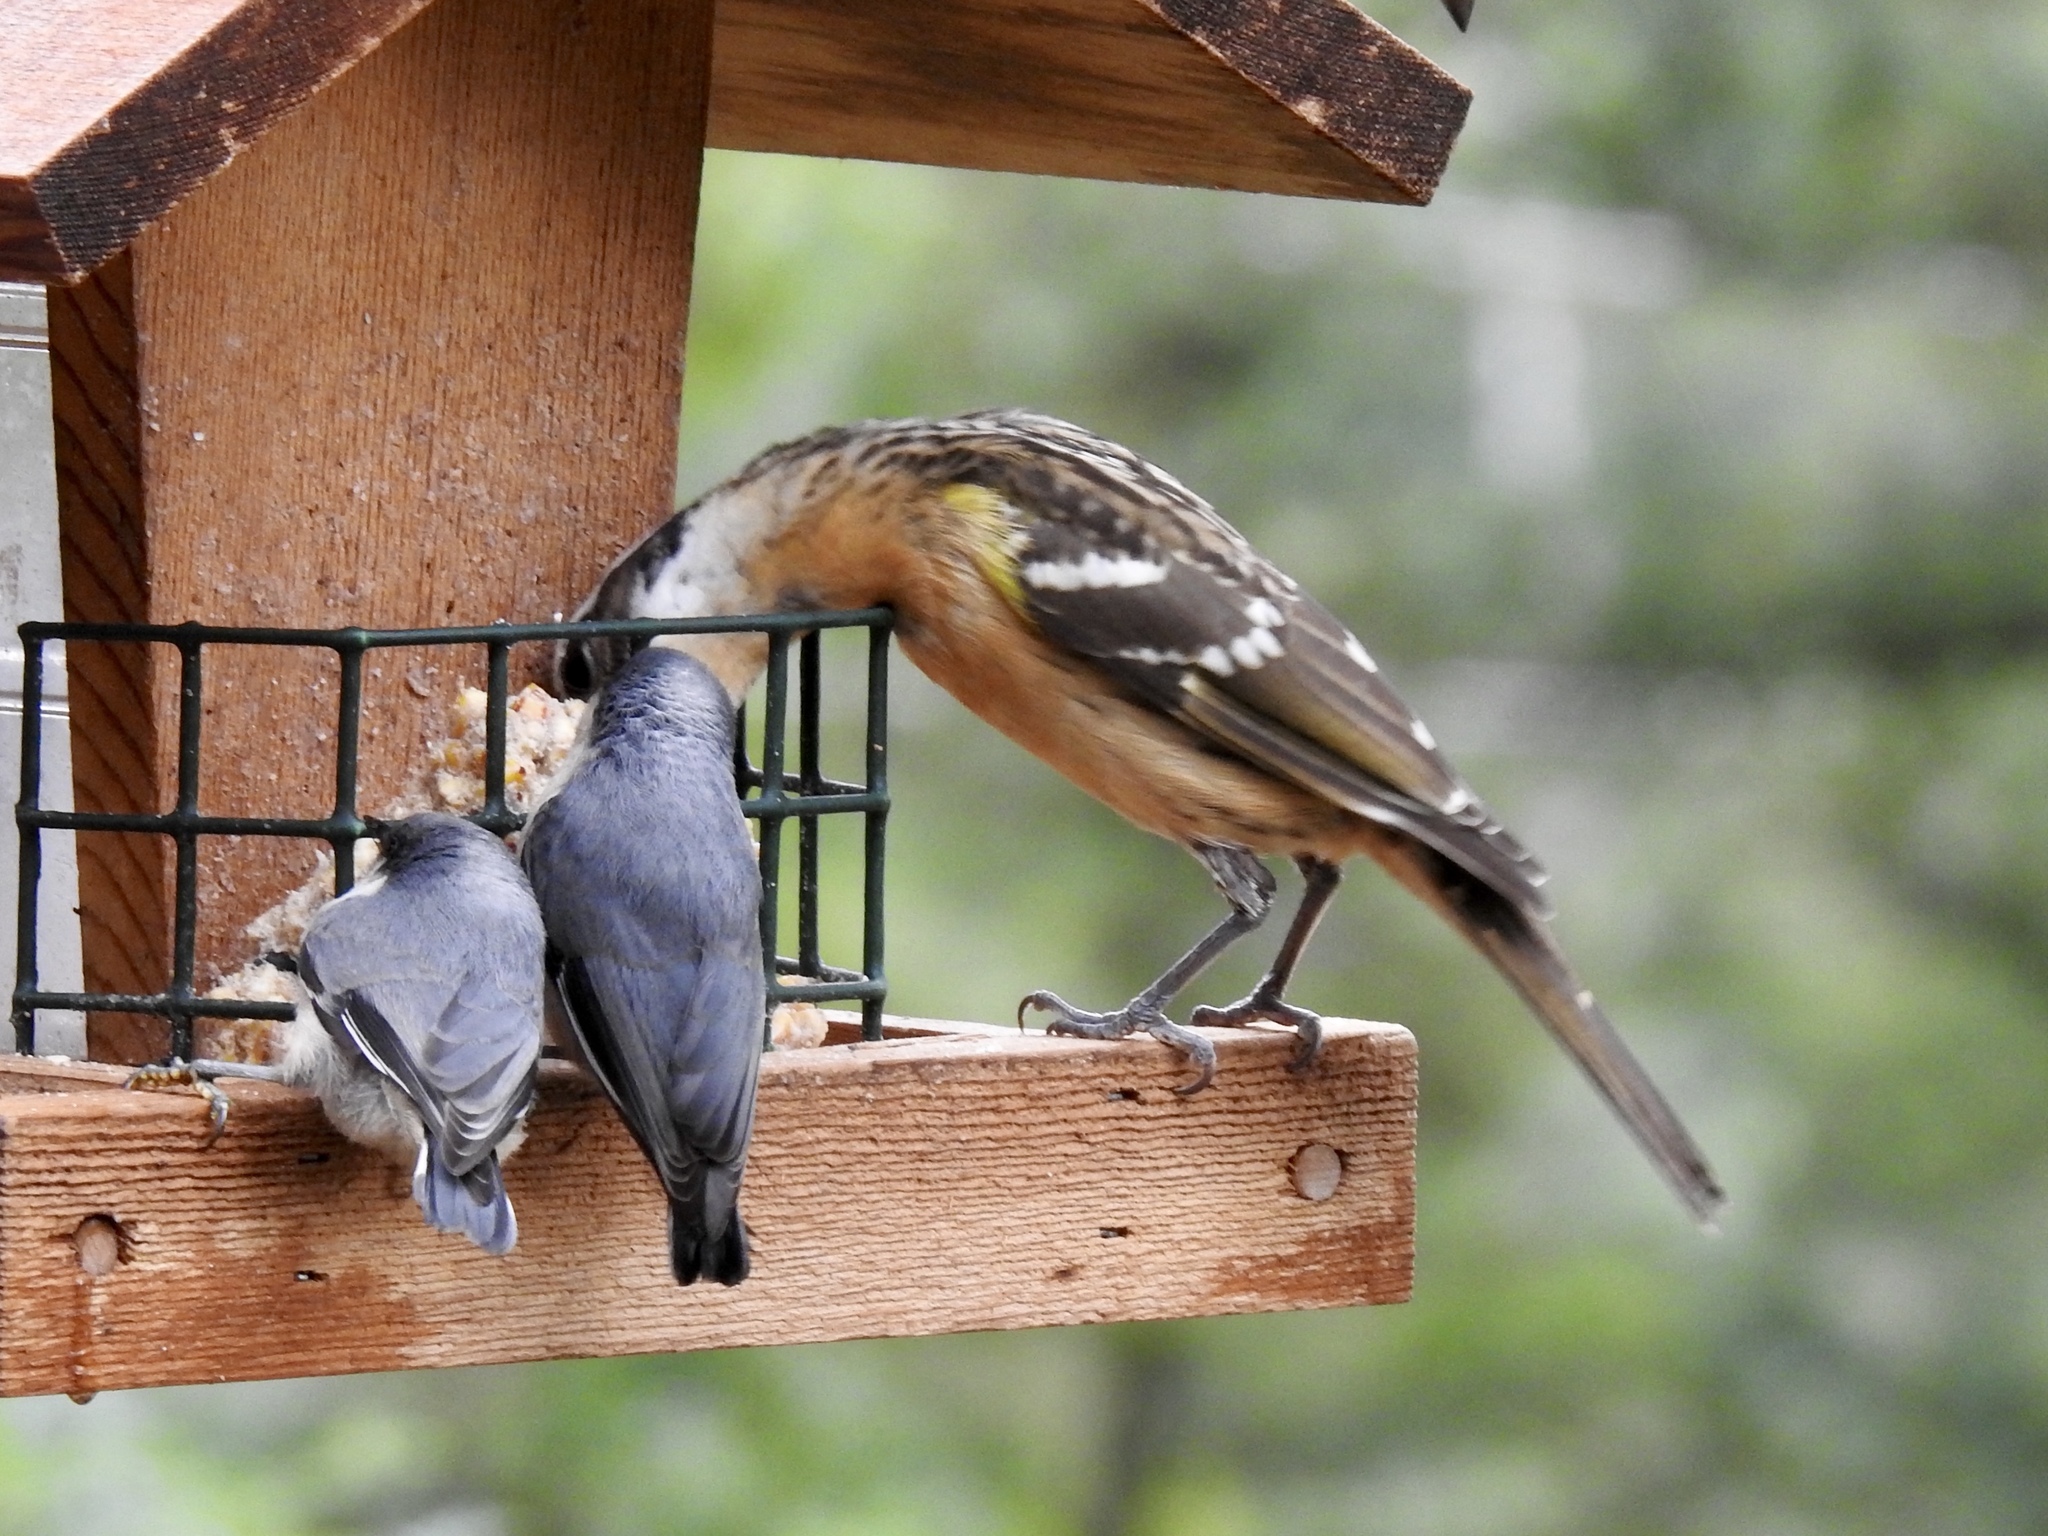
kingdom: Animalia
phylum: Chordata
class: Aves
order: Passeriformes
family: Cardinalidae
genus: Pheucticus
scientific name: Pheucticus melanocephalus
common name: Black-headed grosbeak
